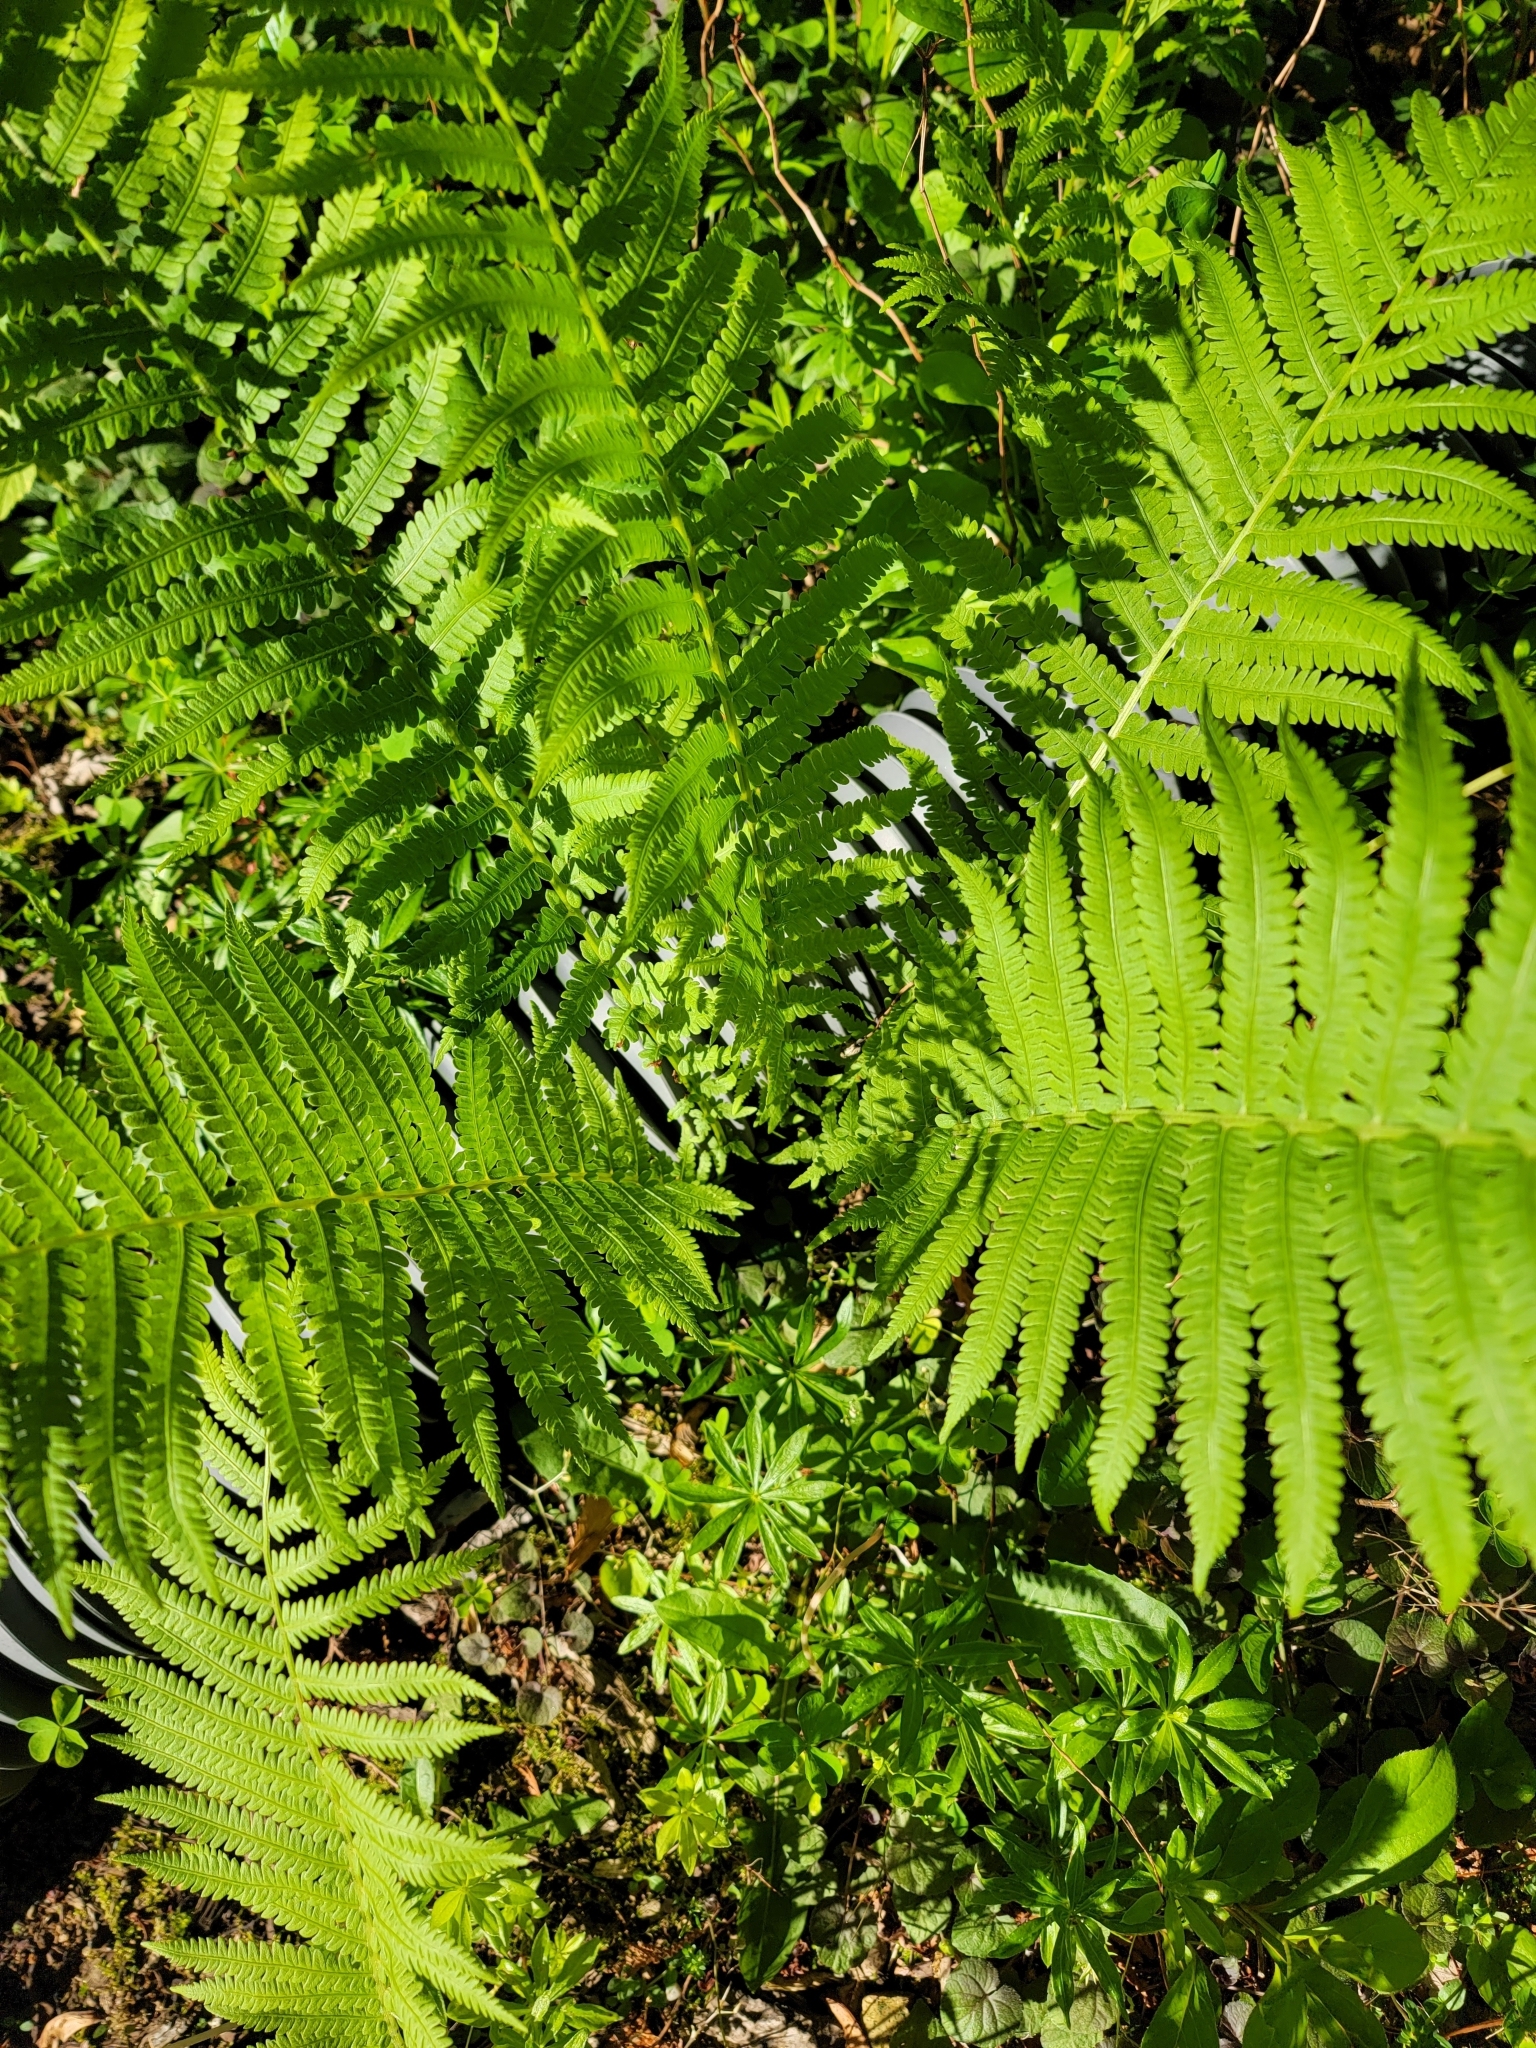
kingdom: Plantae
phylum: Tracheophyta
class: Polypodiopsida
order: Polypodiales
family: Onocleaceae
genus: Matteuccia
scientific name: Matteuccia struthiopteris
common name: Ostrich fern
